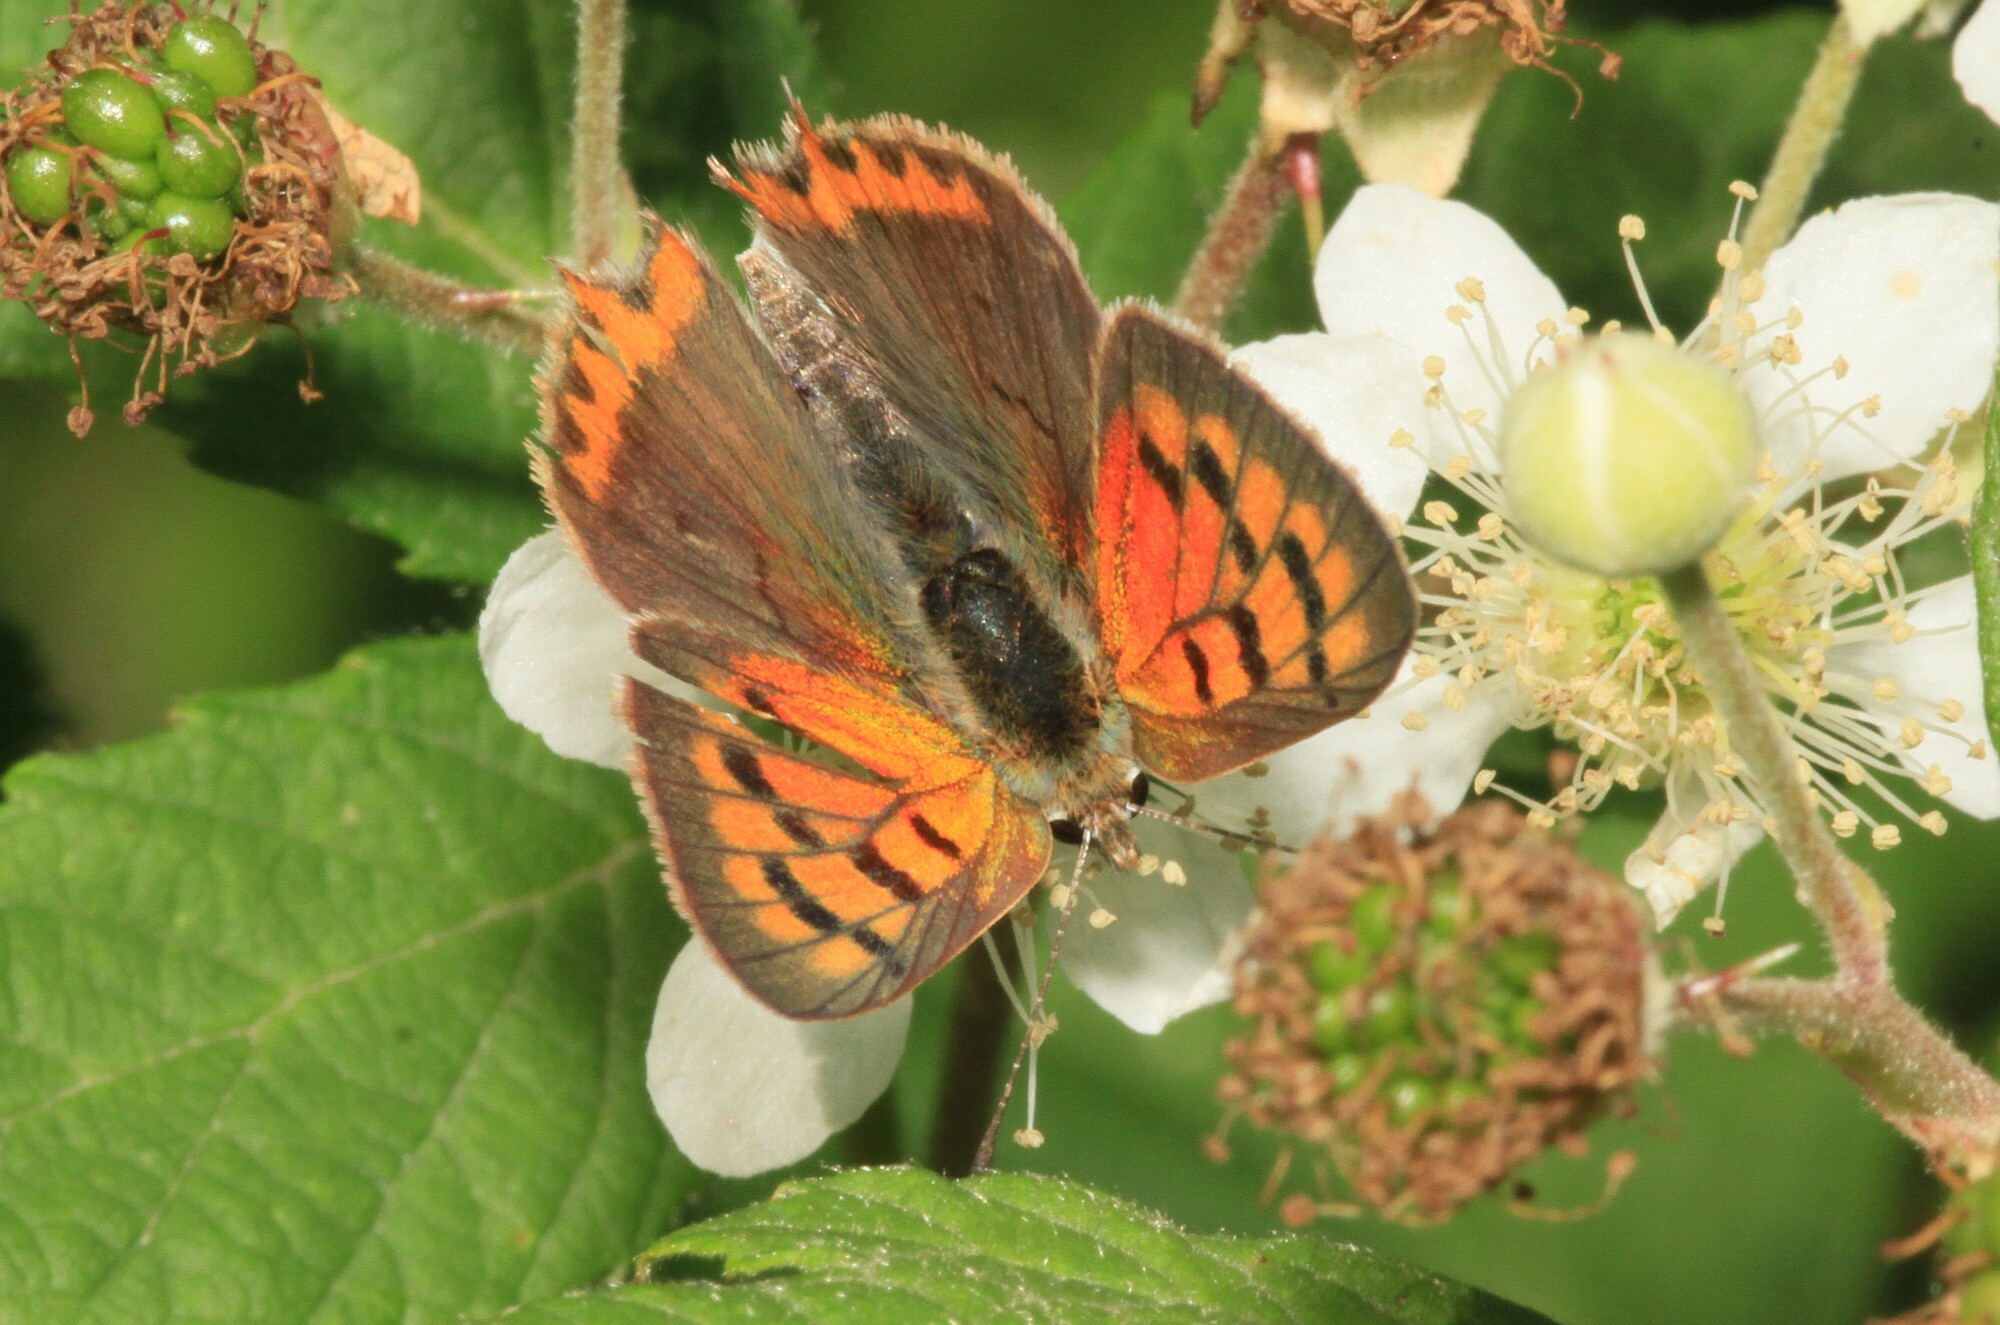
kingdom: Animalia
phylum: Arthropoda
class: Insecta
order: Lepidoptera
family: Lycaenidae
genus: Lycaena
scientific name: Lycaena phlaeas
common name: Small copper
